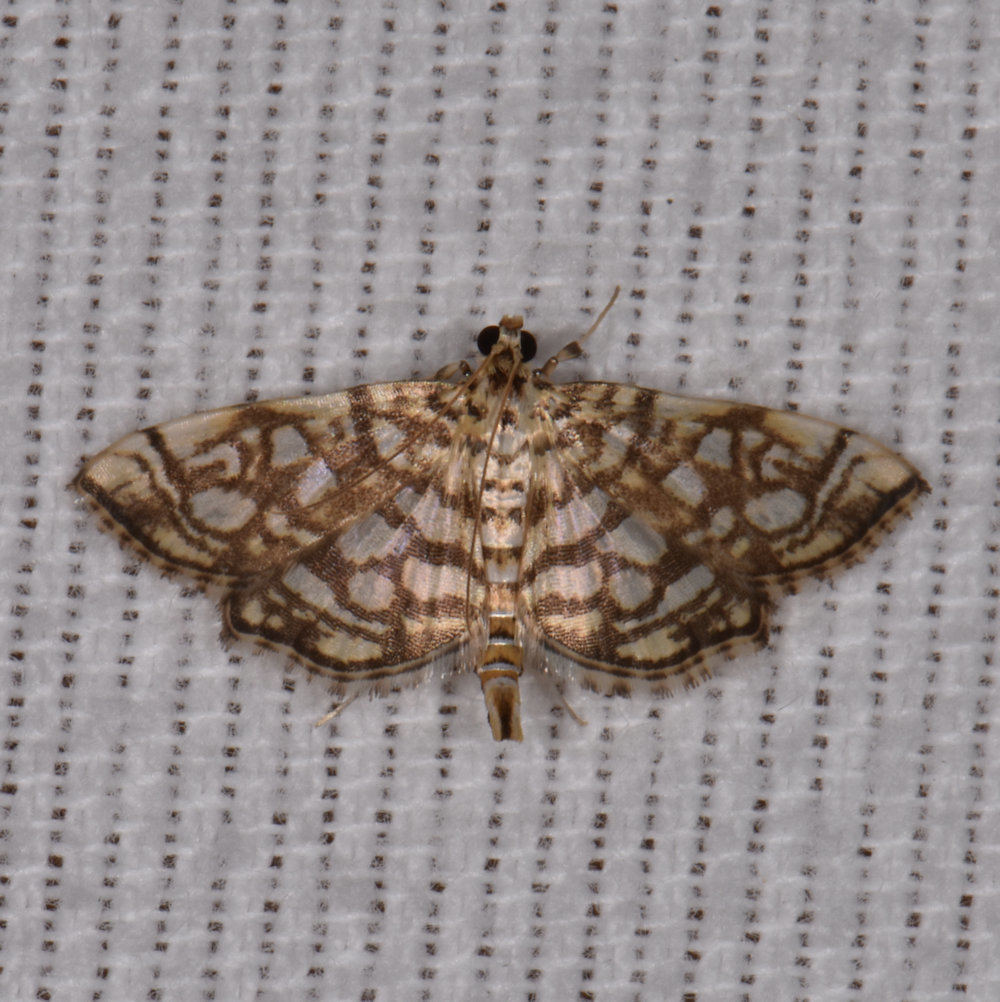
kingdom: Animalia
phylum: Arthropoda
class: Insecta
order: Lepidoptera
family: Crambidae
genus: Lygropia
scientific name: Lygropia rivulalis
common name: Bog lygropia moth
